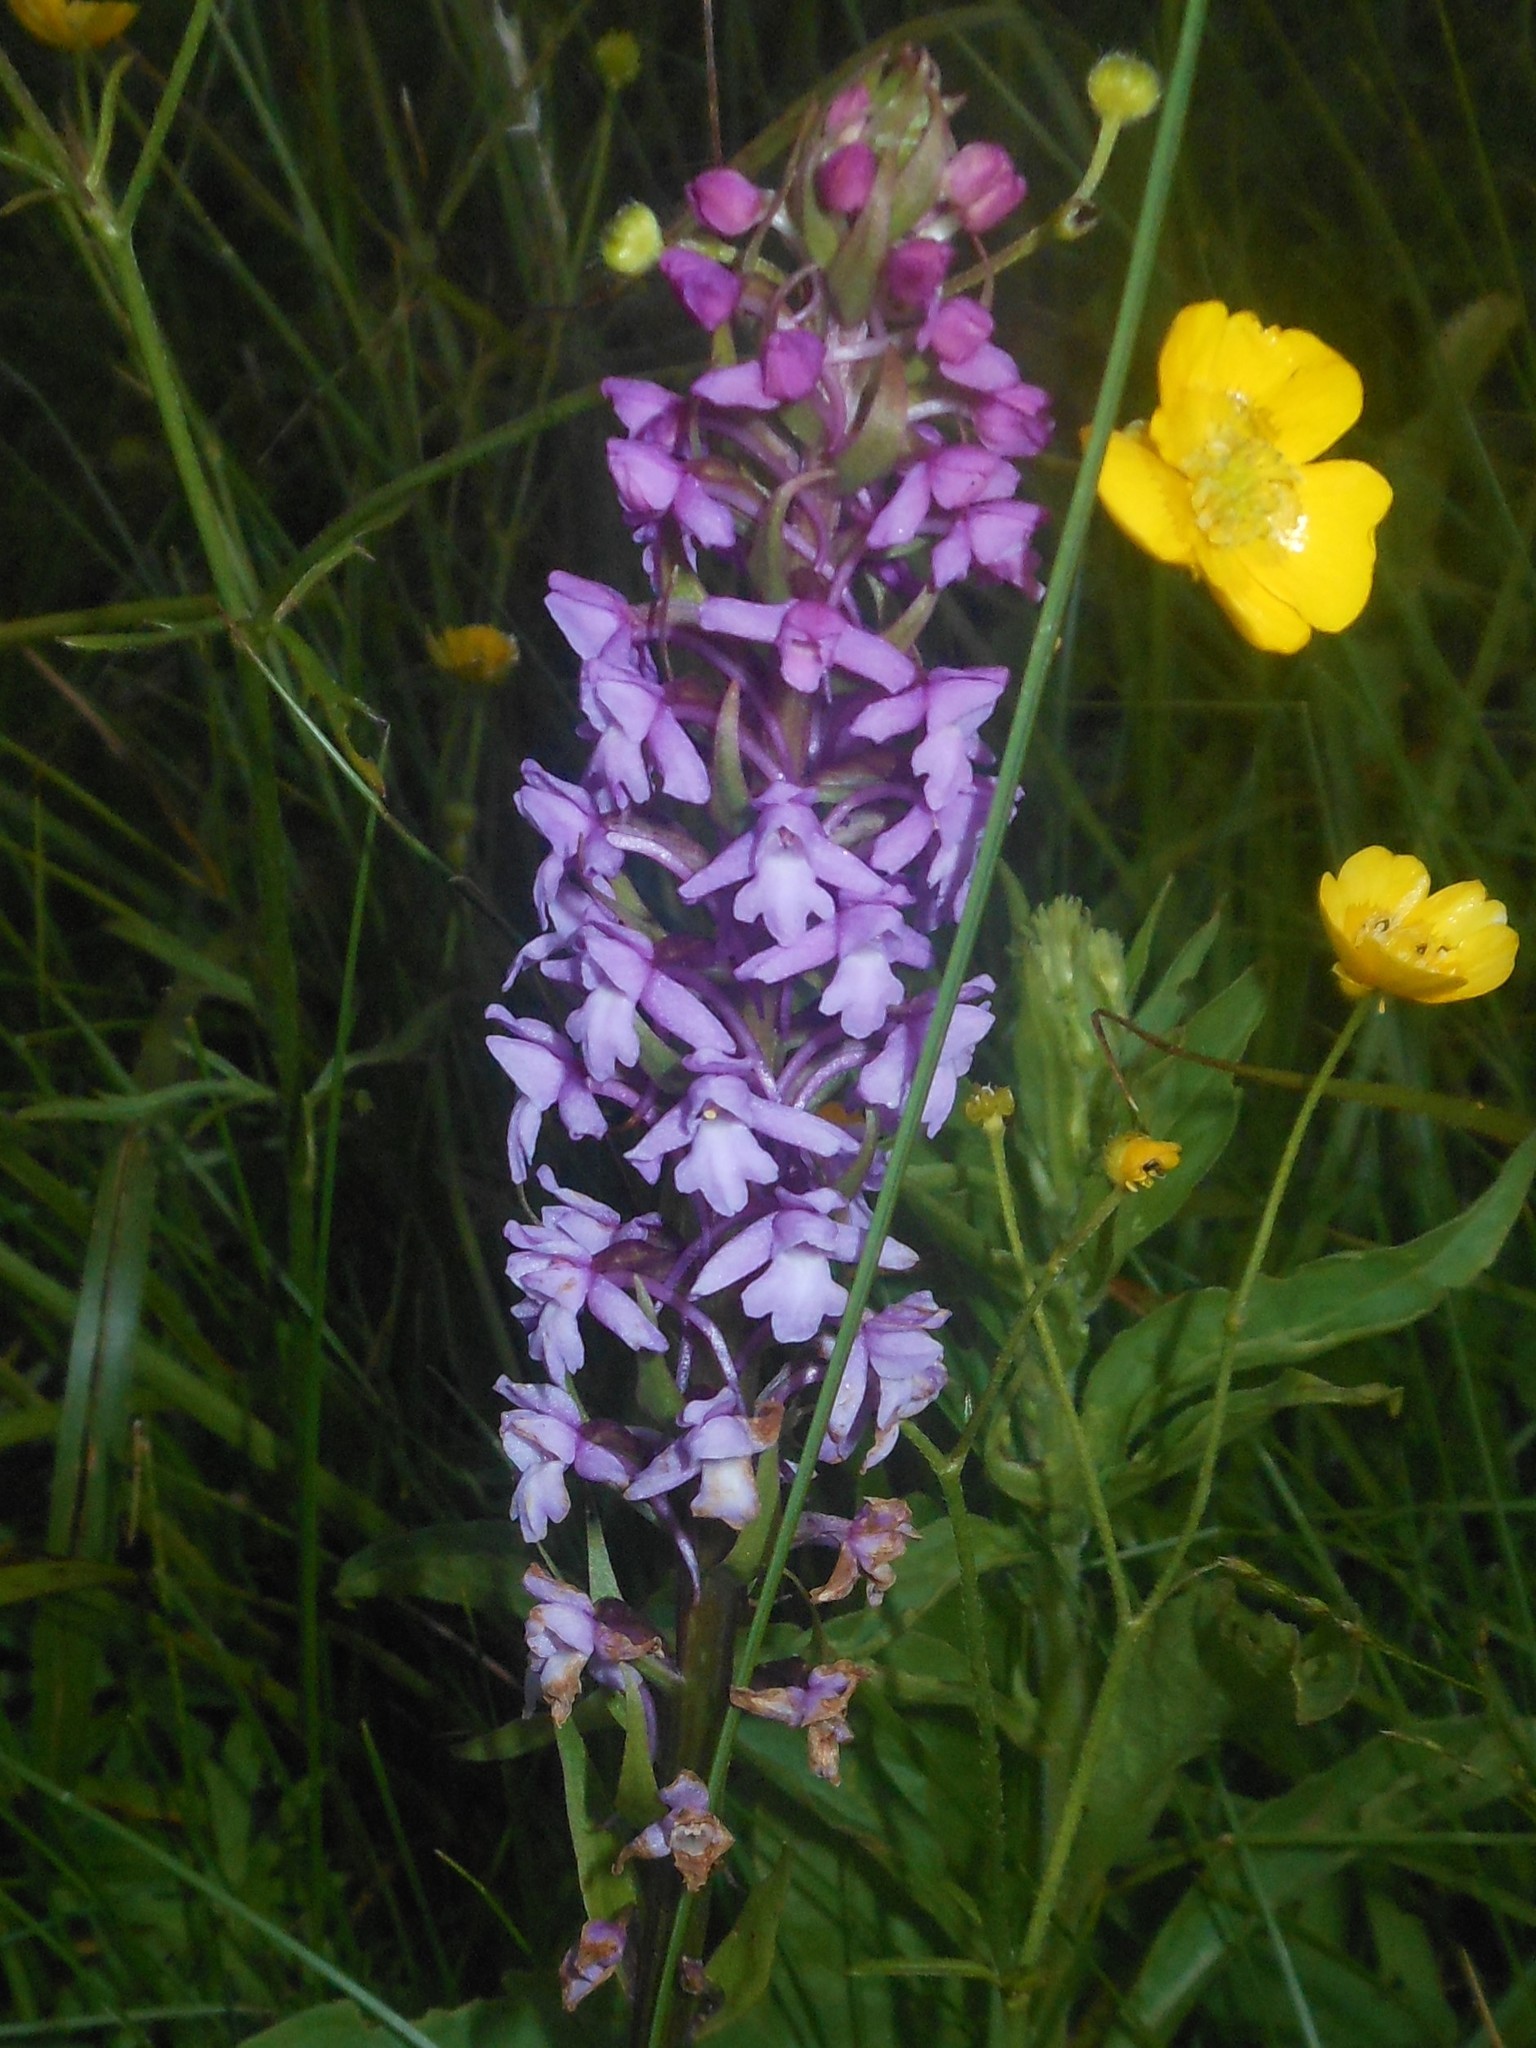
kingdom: Plantae
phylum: Tracheophyta
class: Liliopsida
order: Asparagales
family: Orchidaceae
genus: Gymnadenia
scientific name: Gymnadenia conopsea
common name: Fragrant orchid
